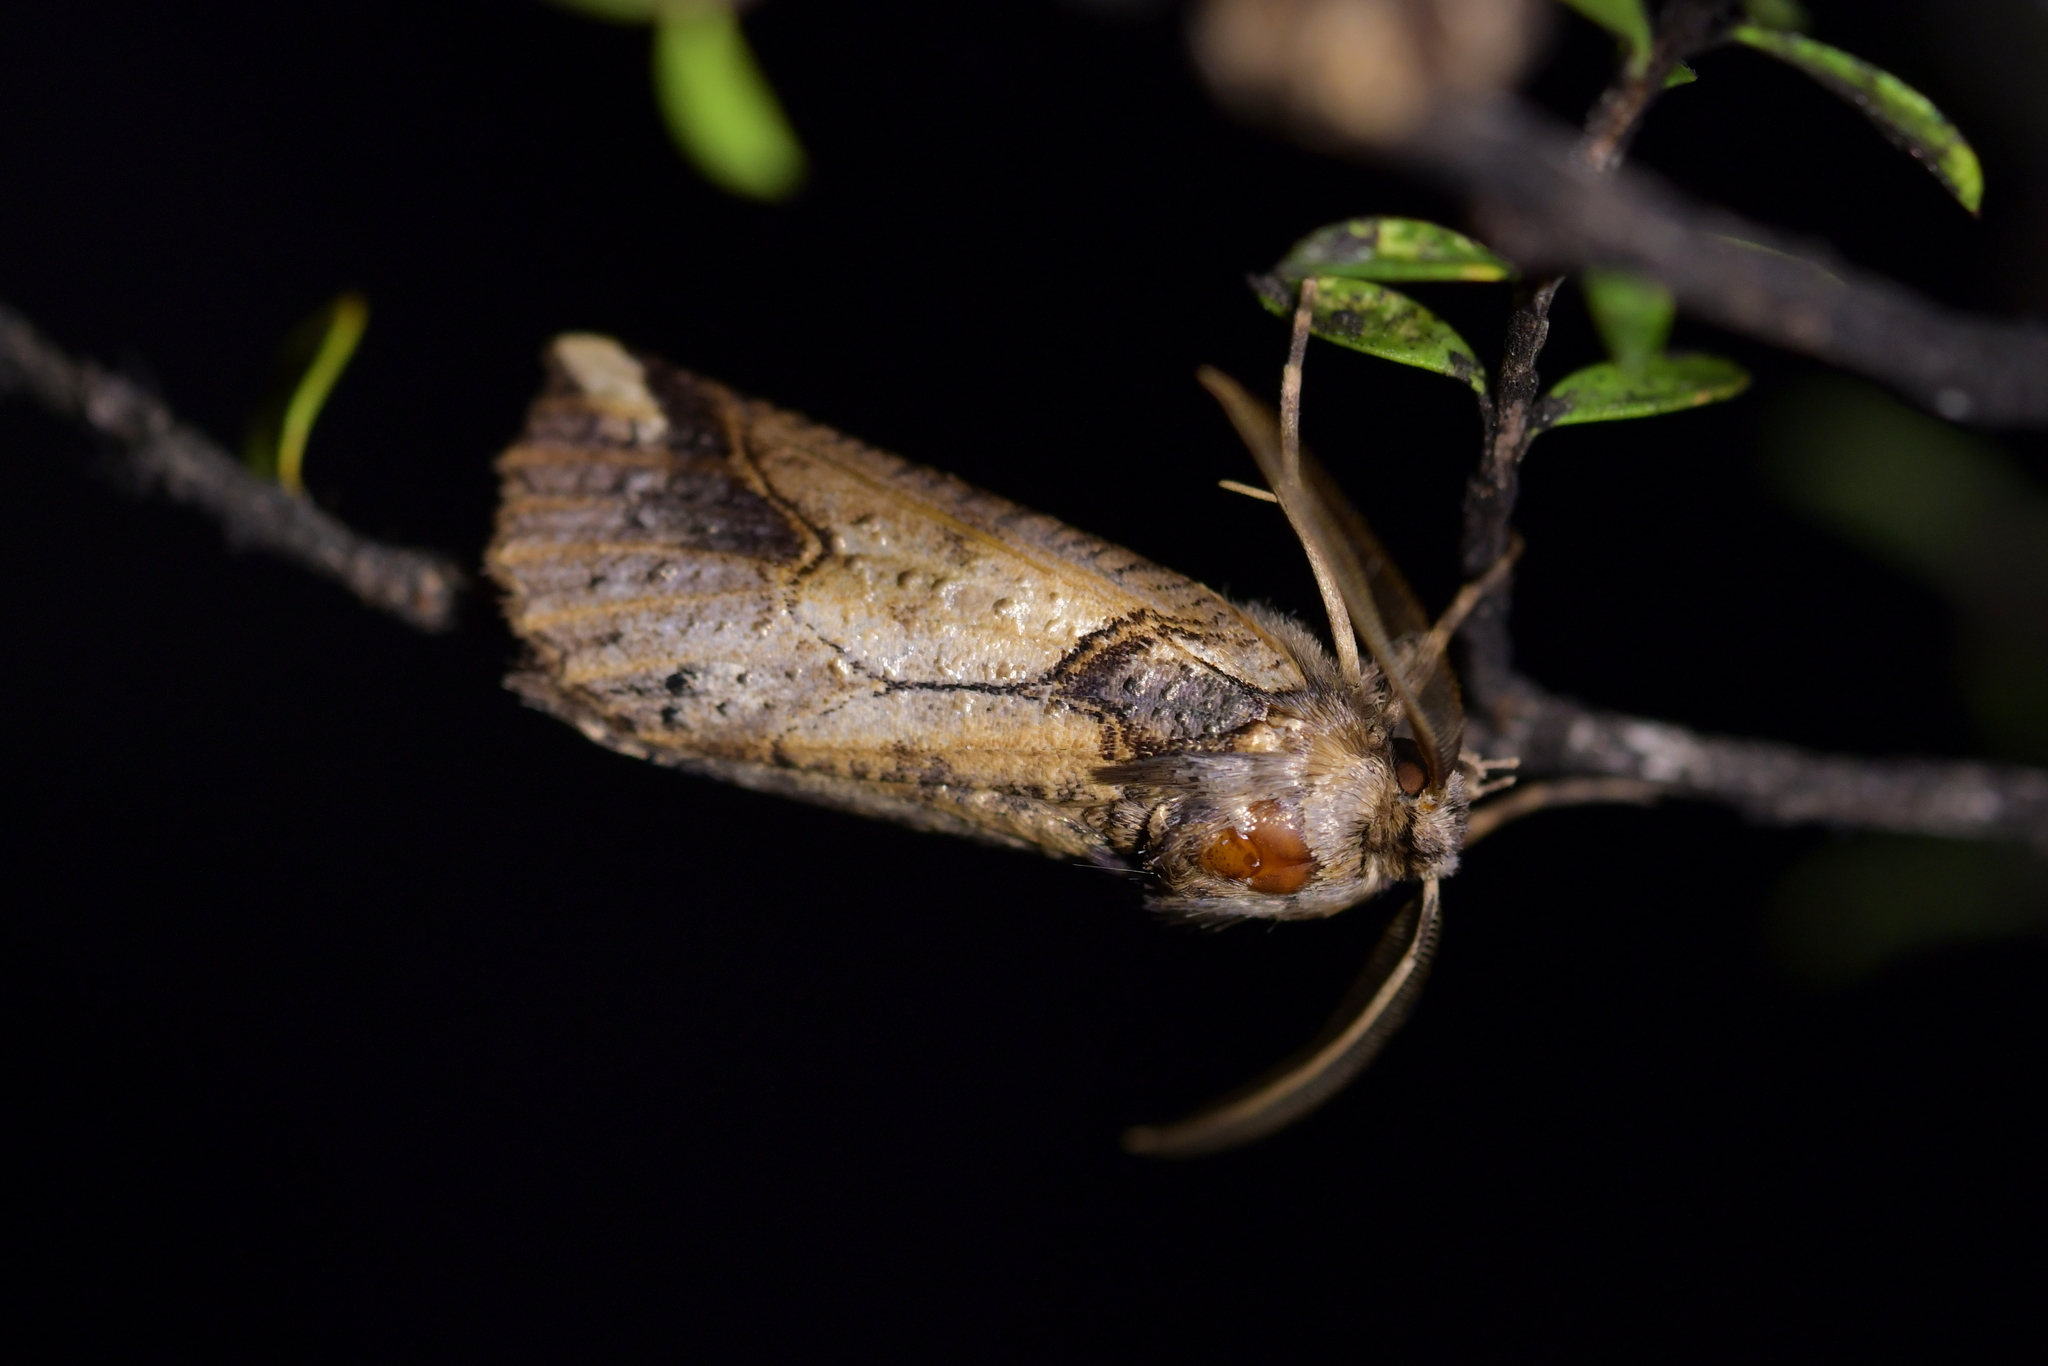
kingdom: Animalia
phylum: Arthropoda
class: Insecta
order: Lepidoptera
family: Geometridae
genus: Declana
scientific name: Declana
